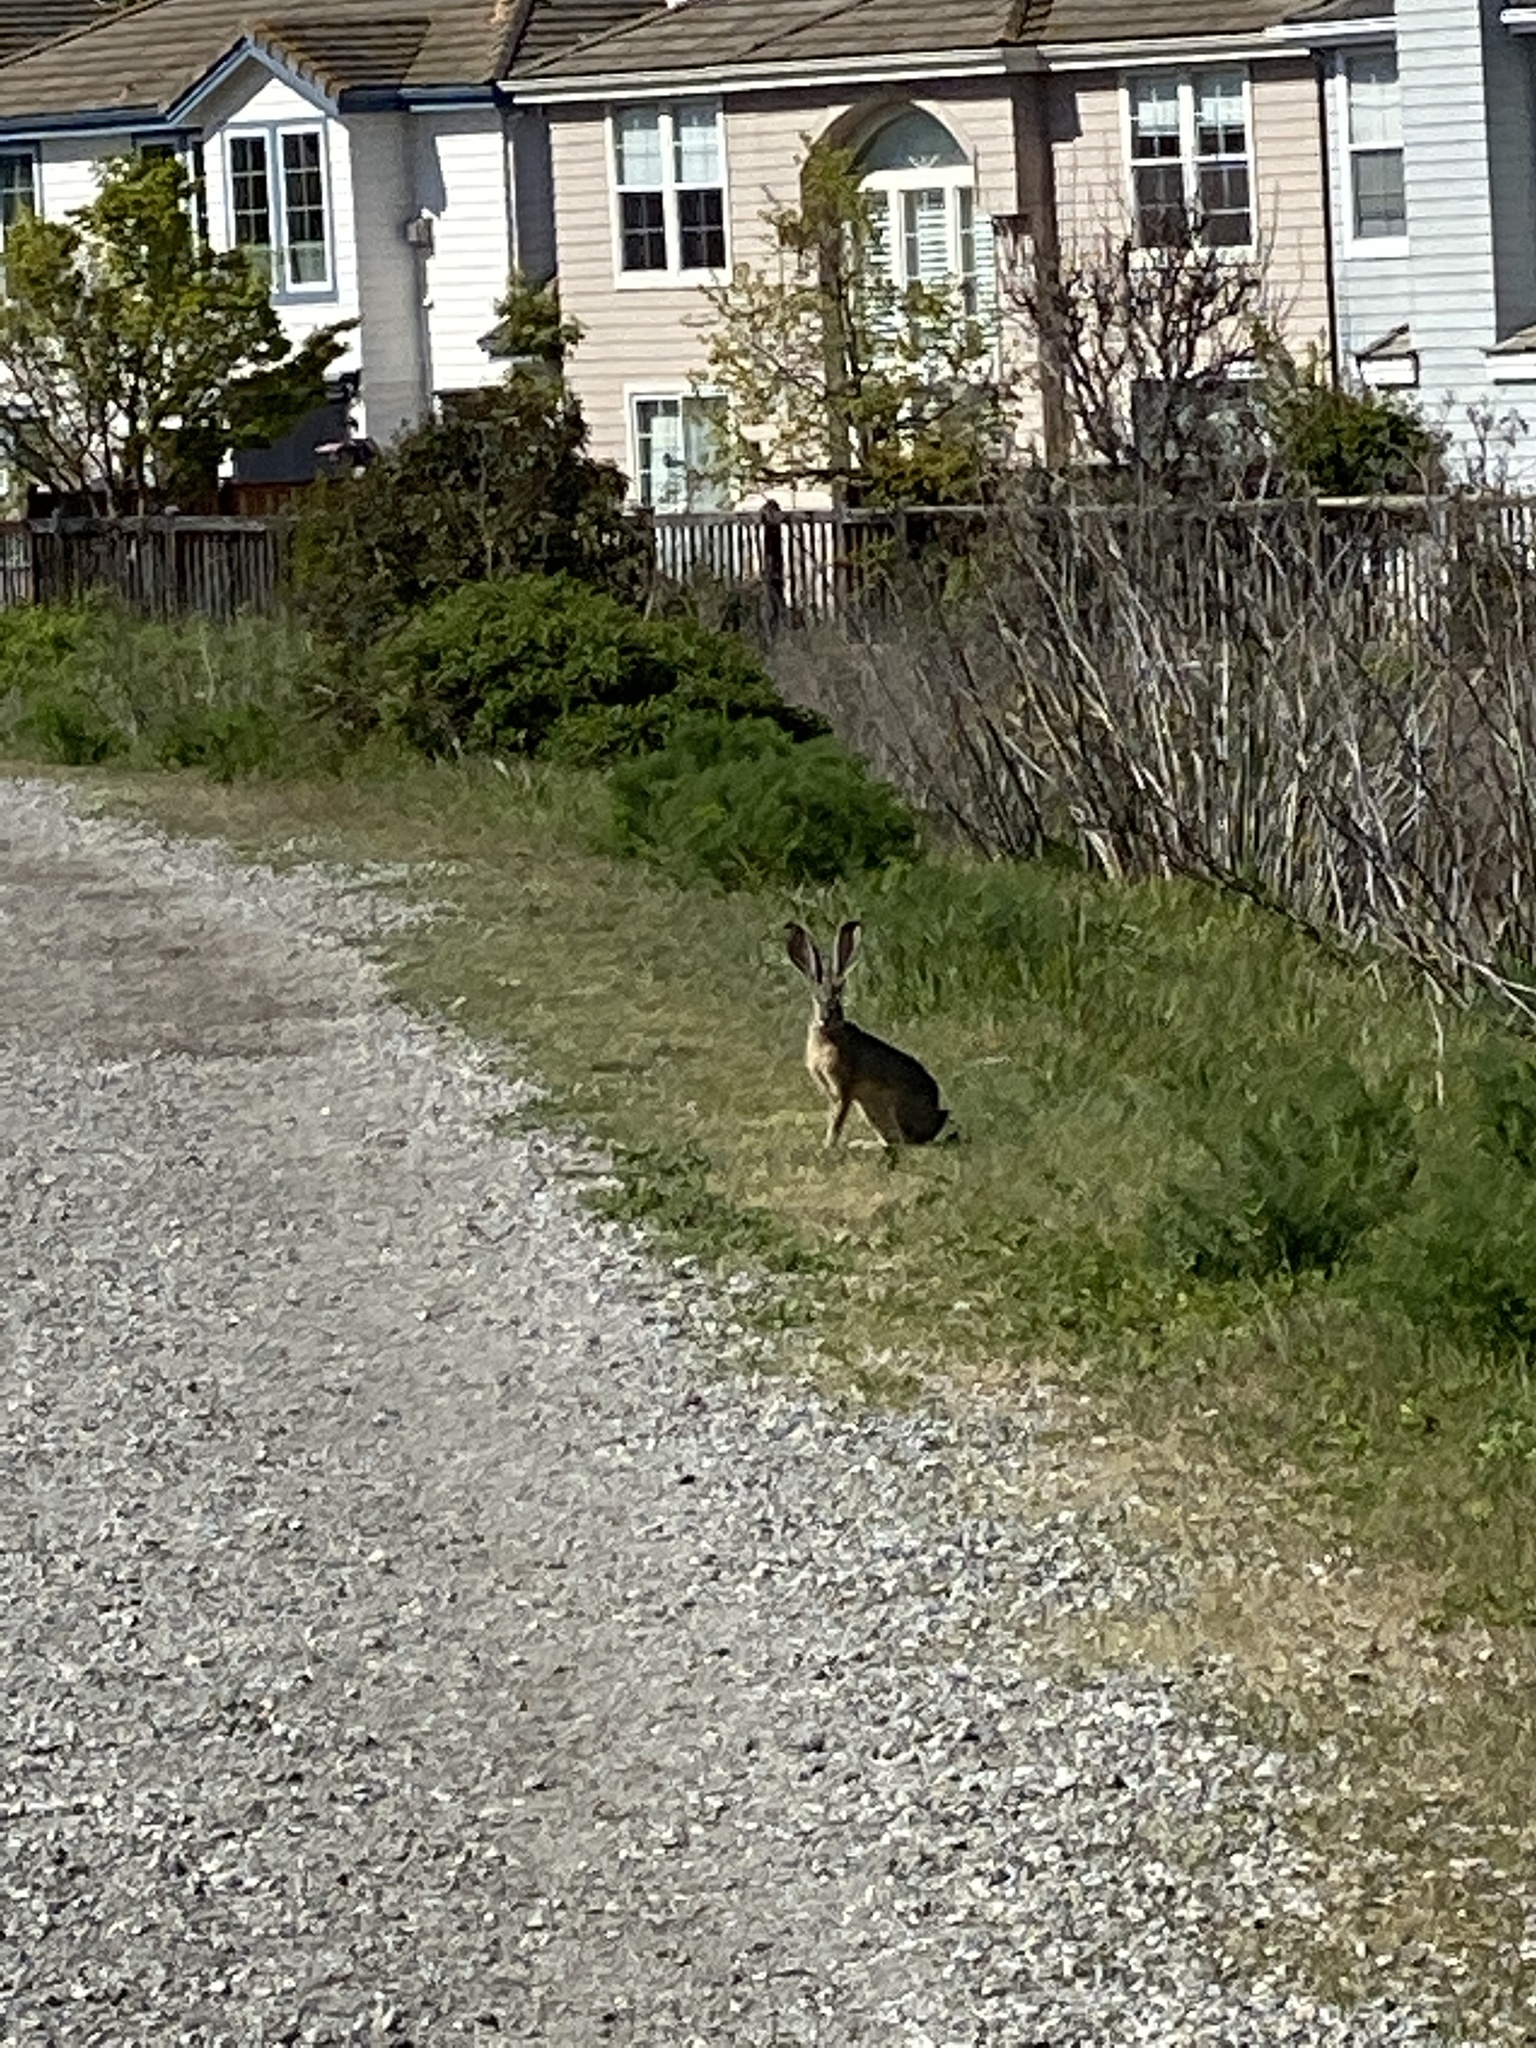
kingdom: Animalia
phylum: Chordata
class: Mammalia
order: Lagomorpha
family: Leporidae
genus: Lepus
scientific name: Lepus californicus
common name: Black-tailed jackrabbit
